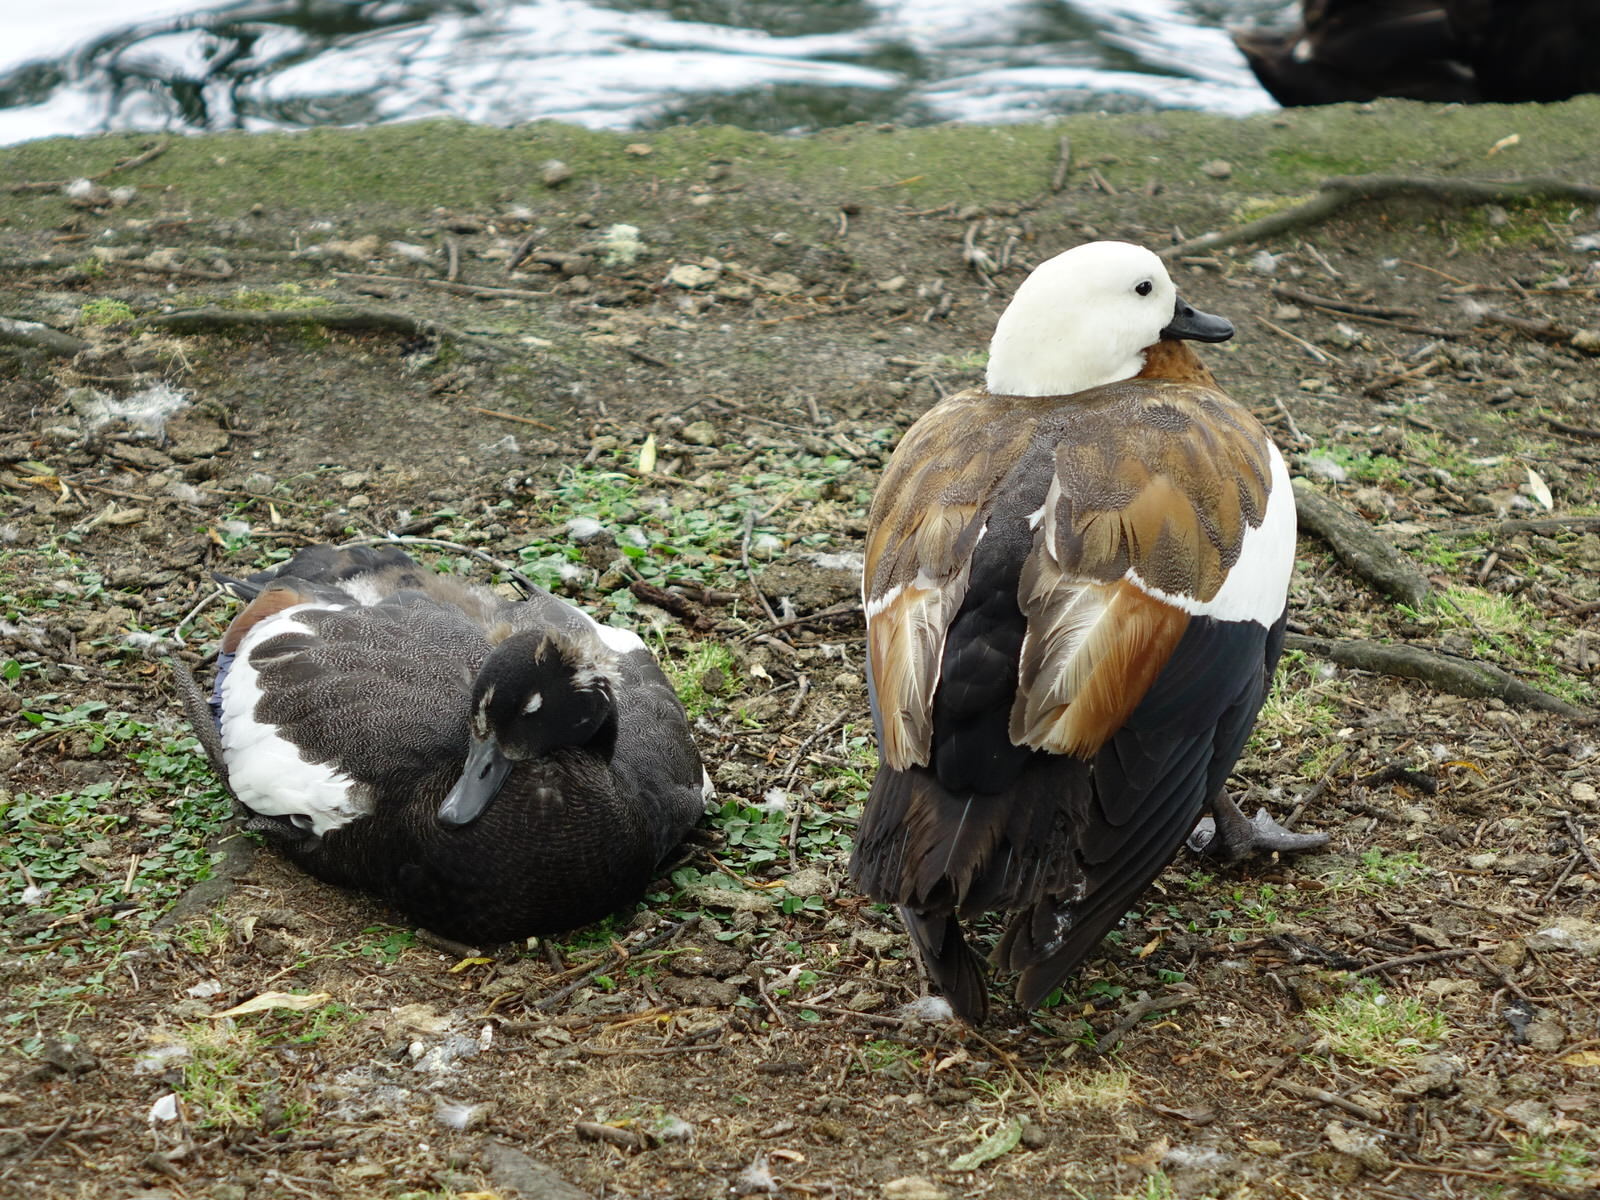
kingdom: Animalia
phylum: Chordata
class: Aves
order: Anseriformes
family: Anatidae
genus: Tadorna
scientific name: Tadorna variegata
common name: Paradise shelduck
